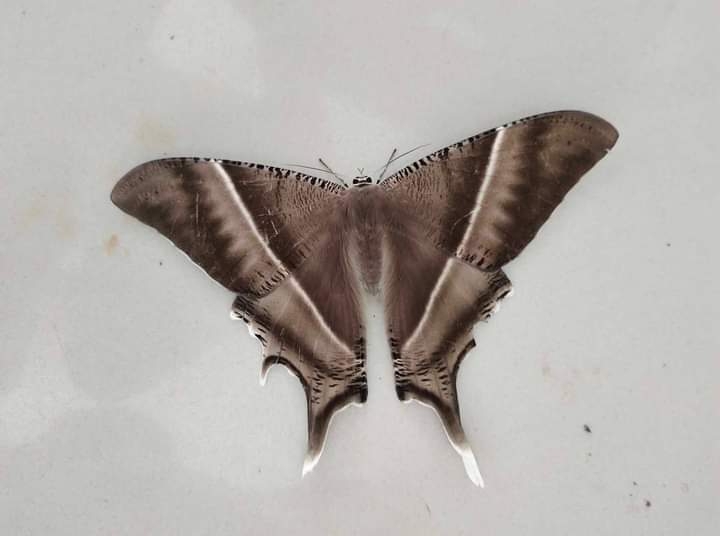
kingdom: Animalia
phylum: Arthropoda
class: Insecta
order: Lepidoptera
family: Uraniidae
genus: Lyssa
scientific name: Lyssa zampa
